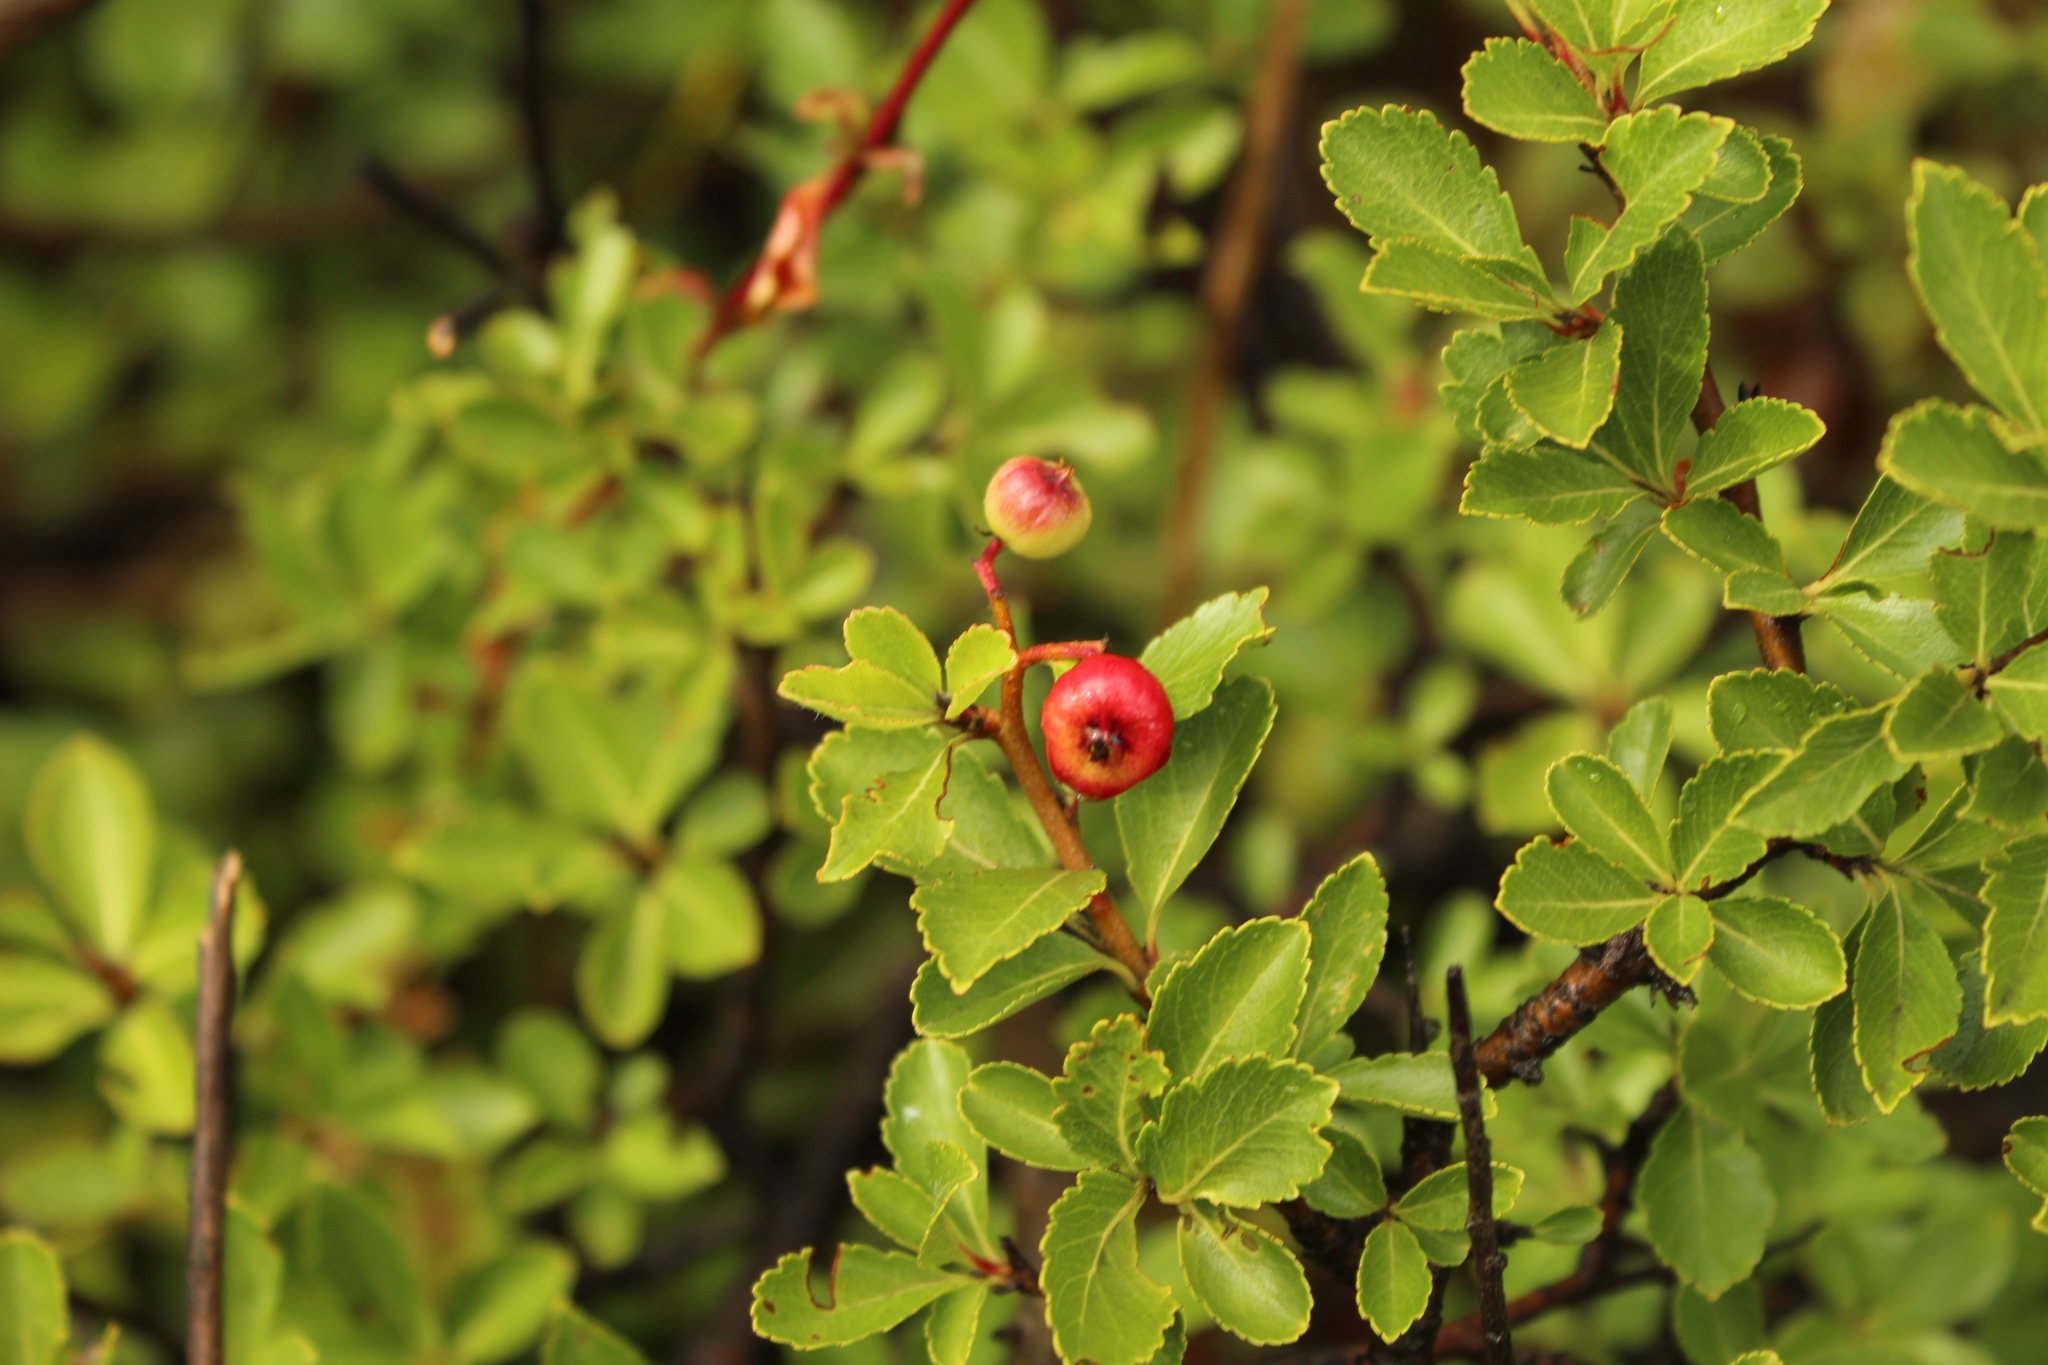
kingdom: Plantae
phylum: Tracheophyta
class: Magnoliopsida
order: Rosales
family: Rosaceae
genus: Hesperomeles
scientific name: Hesperomeles obtusifolia
